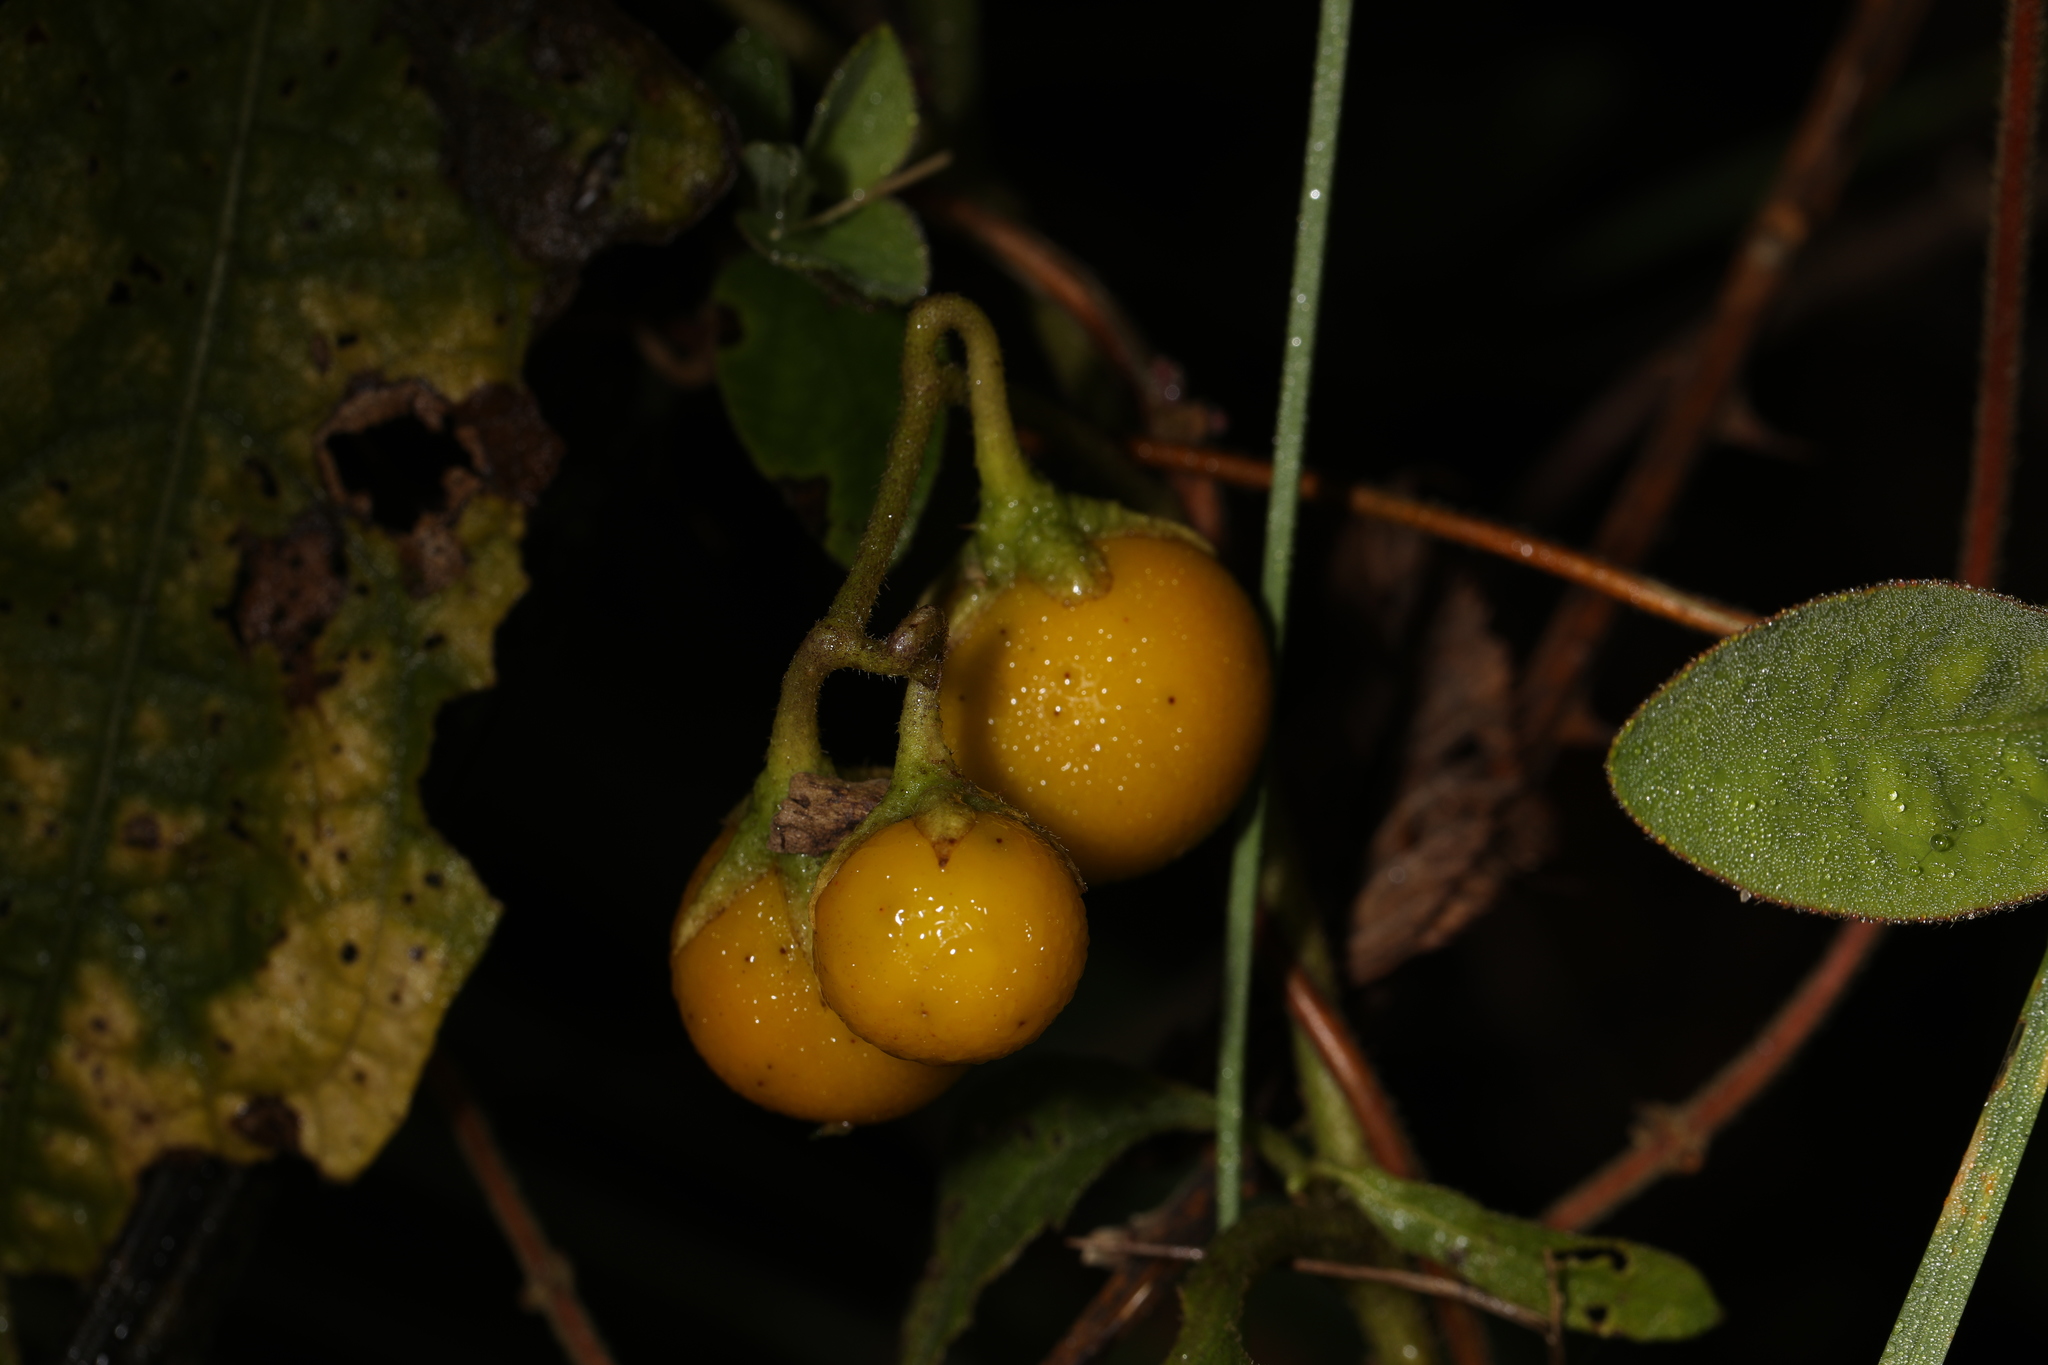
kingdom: Plantae
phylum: Tracheophyta
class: Magnoliopsida
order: Solanales
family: Solanaceae
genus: Solanum
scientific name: Solanum carolinense
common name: Horse-nettle
